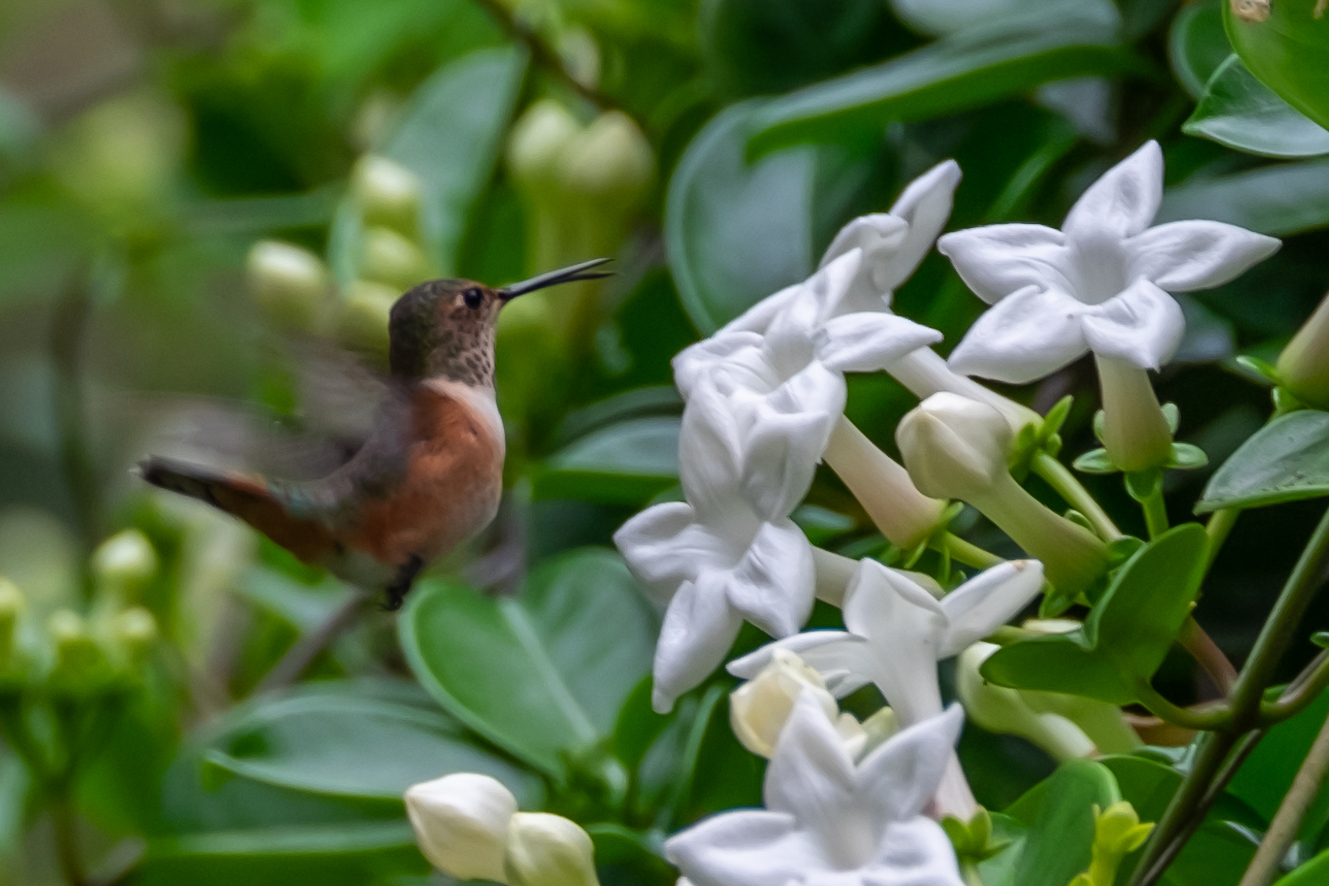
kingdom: Animalia
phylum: Chordata
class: Aves
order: Apodiformes
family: Trochilidae
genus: Selasphorus
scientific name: Selasphorus
